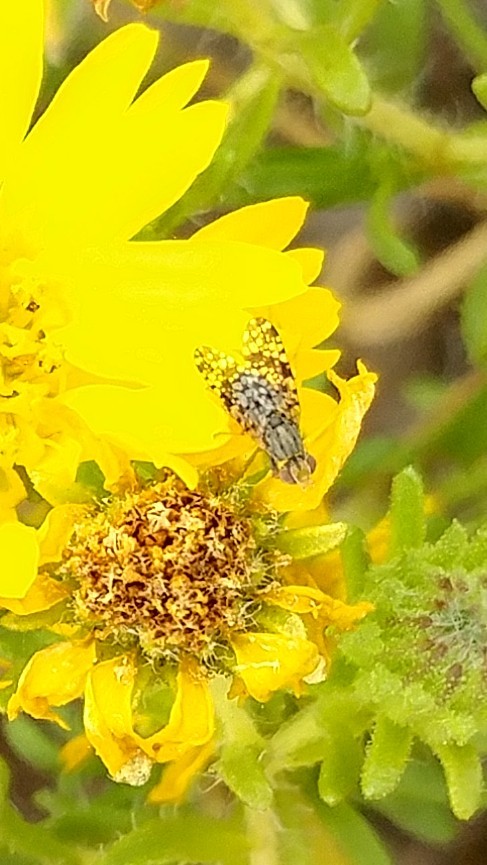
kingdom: Animalia
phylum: Arthropoda
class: Insecta
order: Diptera
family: Tephritidae
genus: Neotephritis
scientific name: Neotephritis finalis
